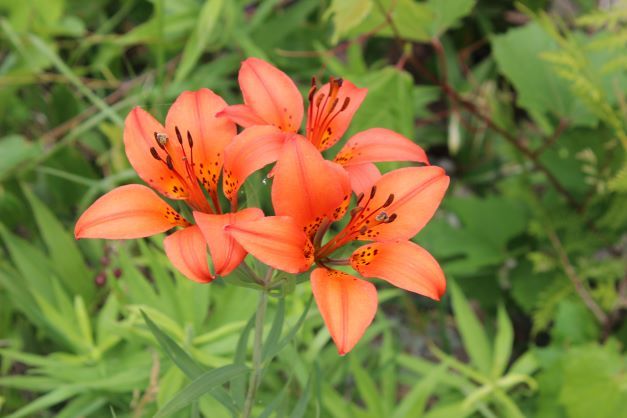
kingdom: Plantae
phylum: Tracheophyta
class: Liliopsida
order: Liliales
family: Liliaceae
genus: Lilium
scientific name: Lilium philadelphicum
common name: Red lily
